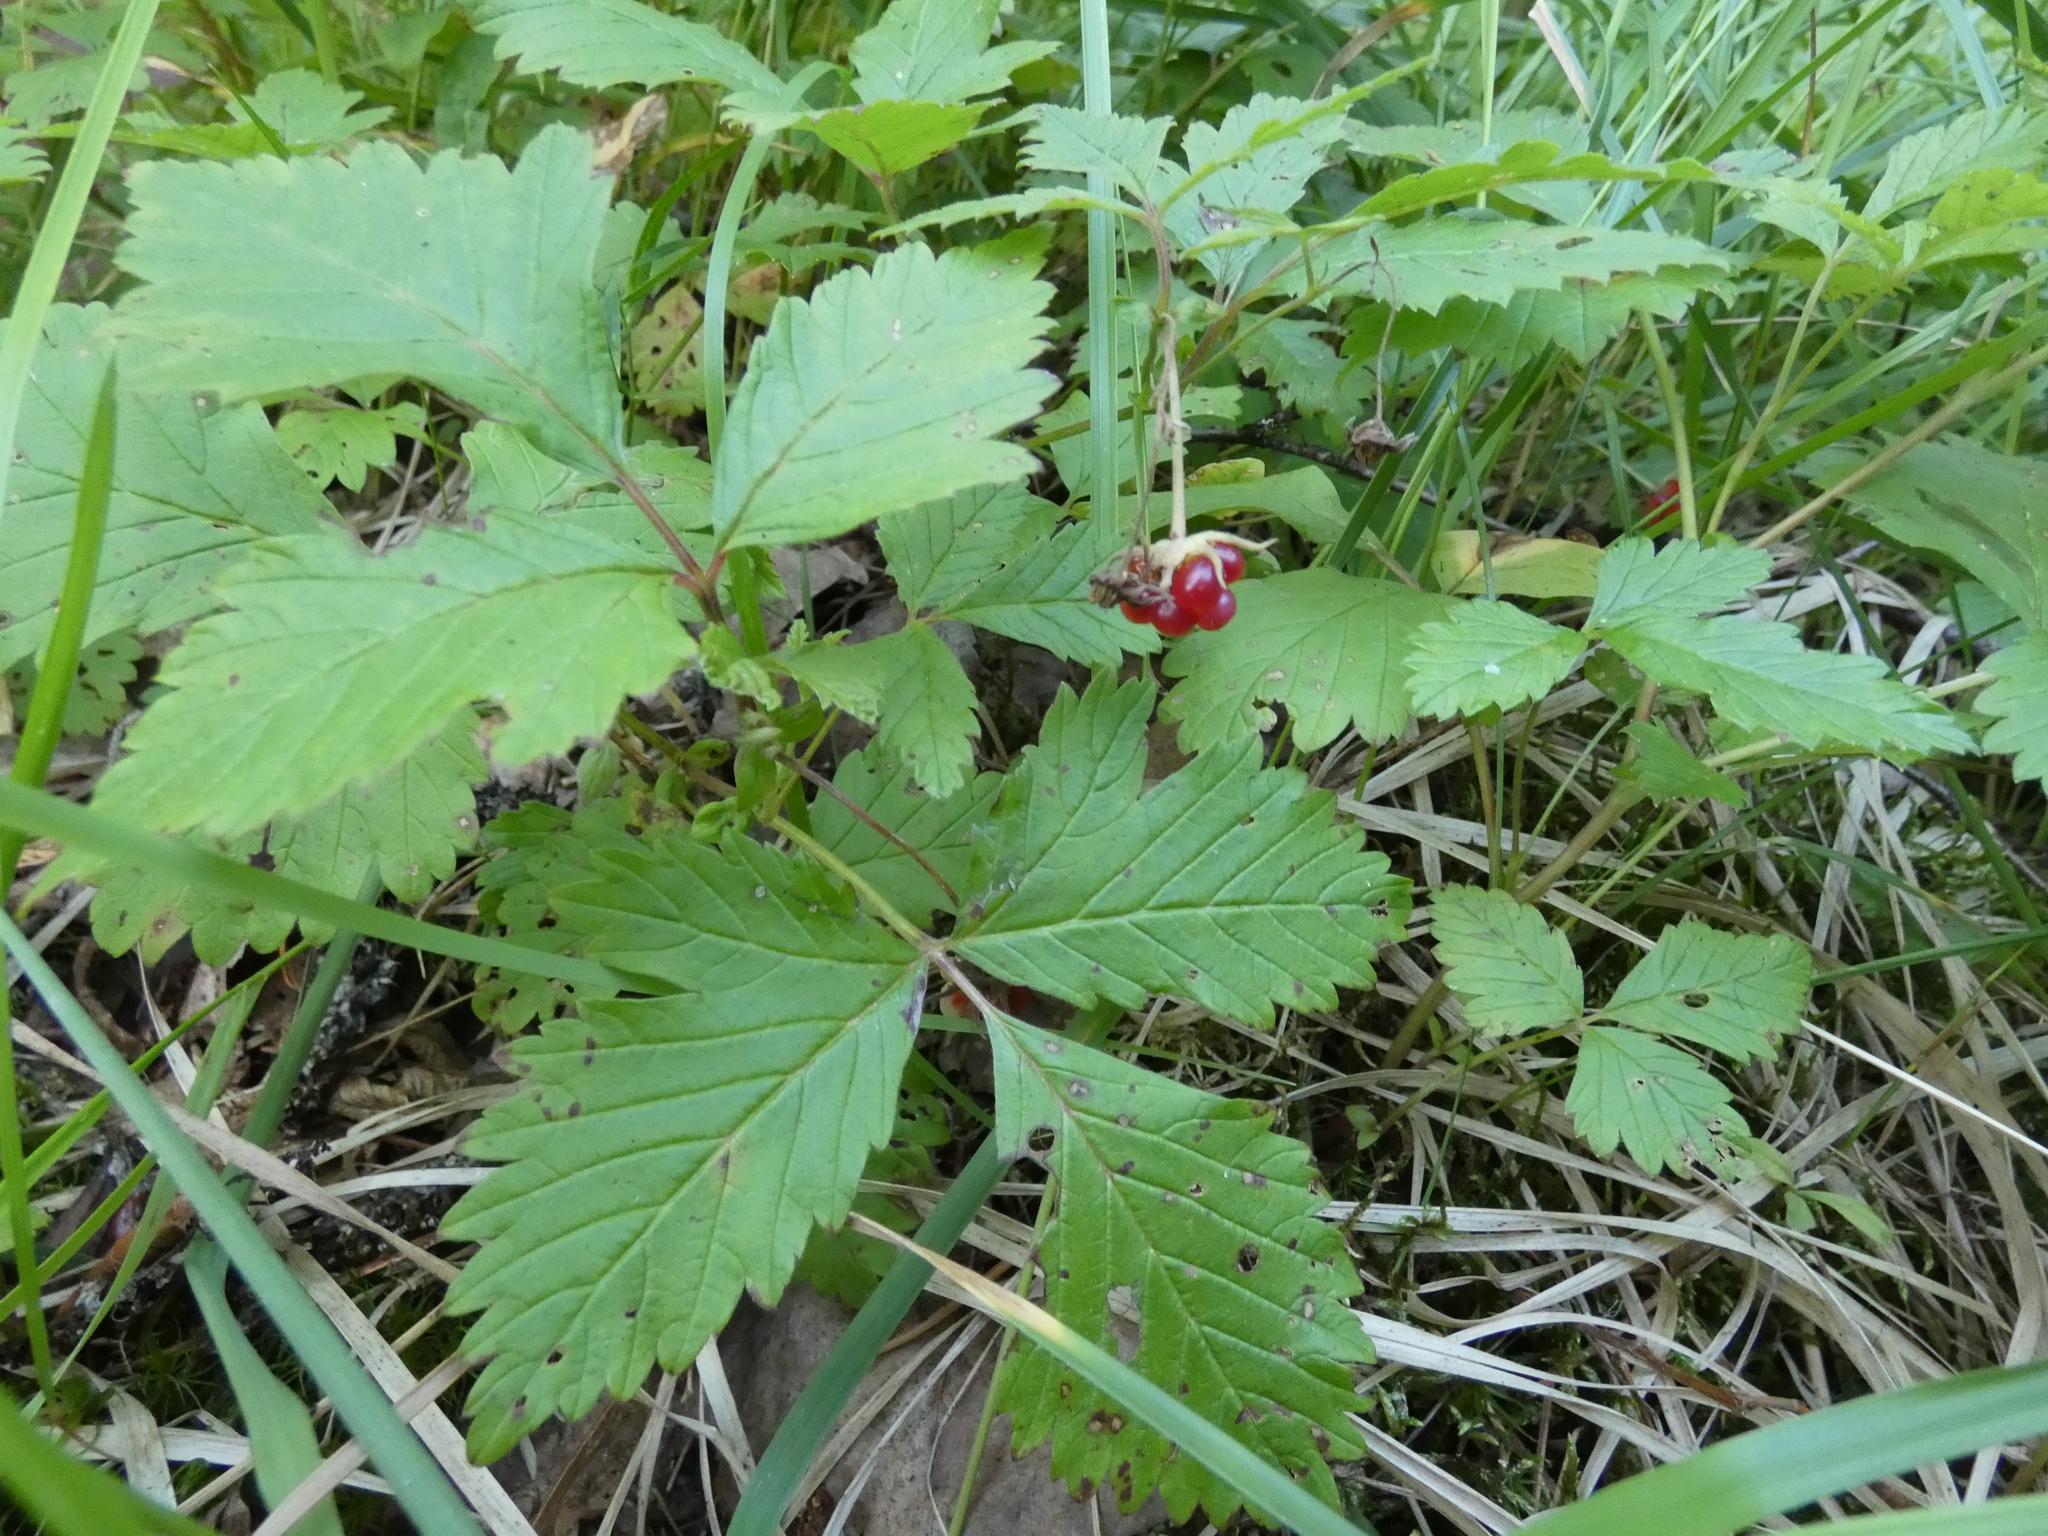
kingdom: Plantae
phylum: Tracheophyta
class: Magnoliopsida
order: Rosales
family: Rosaceae
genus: Rubus
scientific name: Rubus arcticus
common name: Arctic bramble
